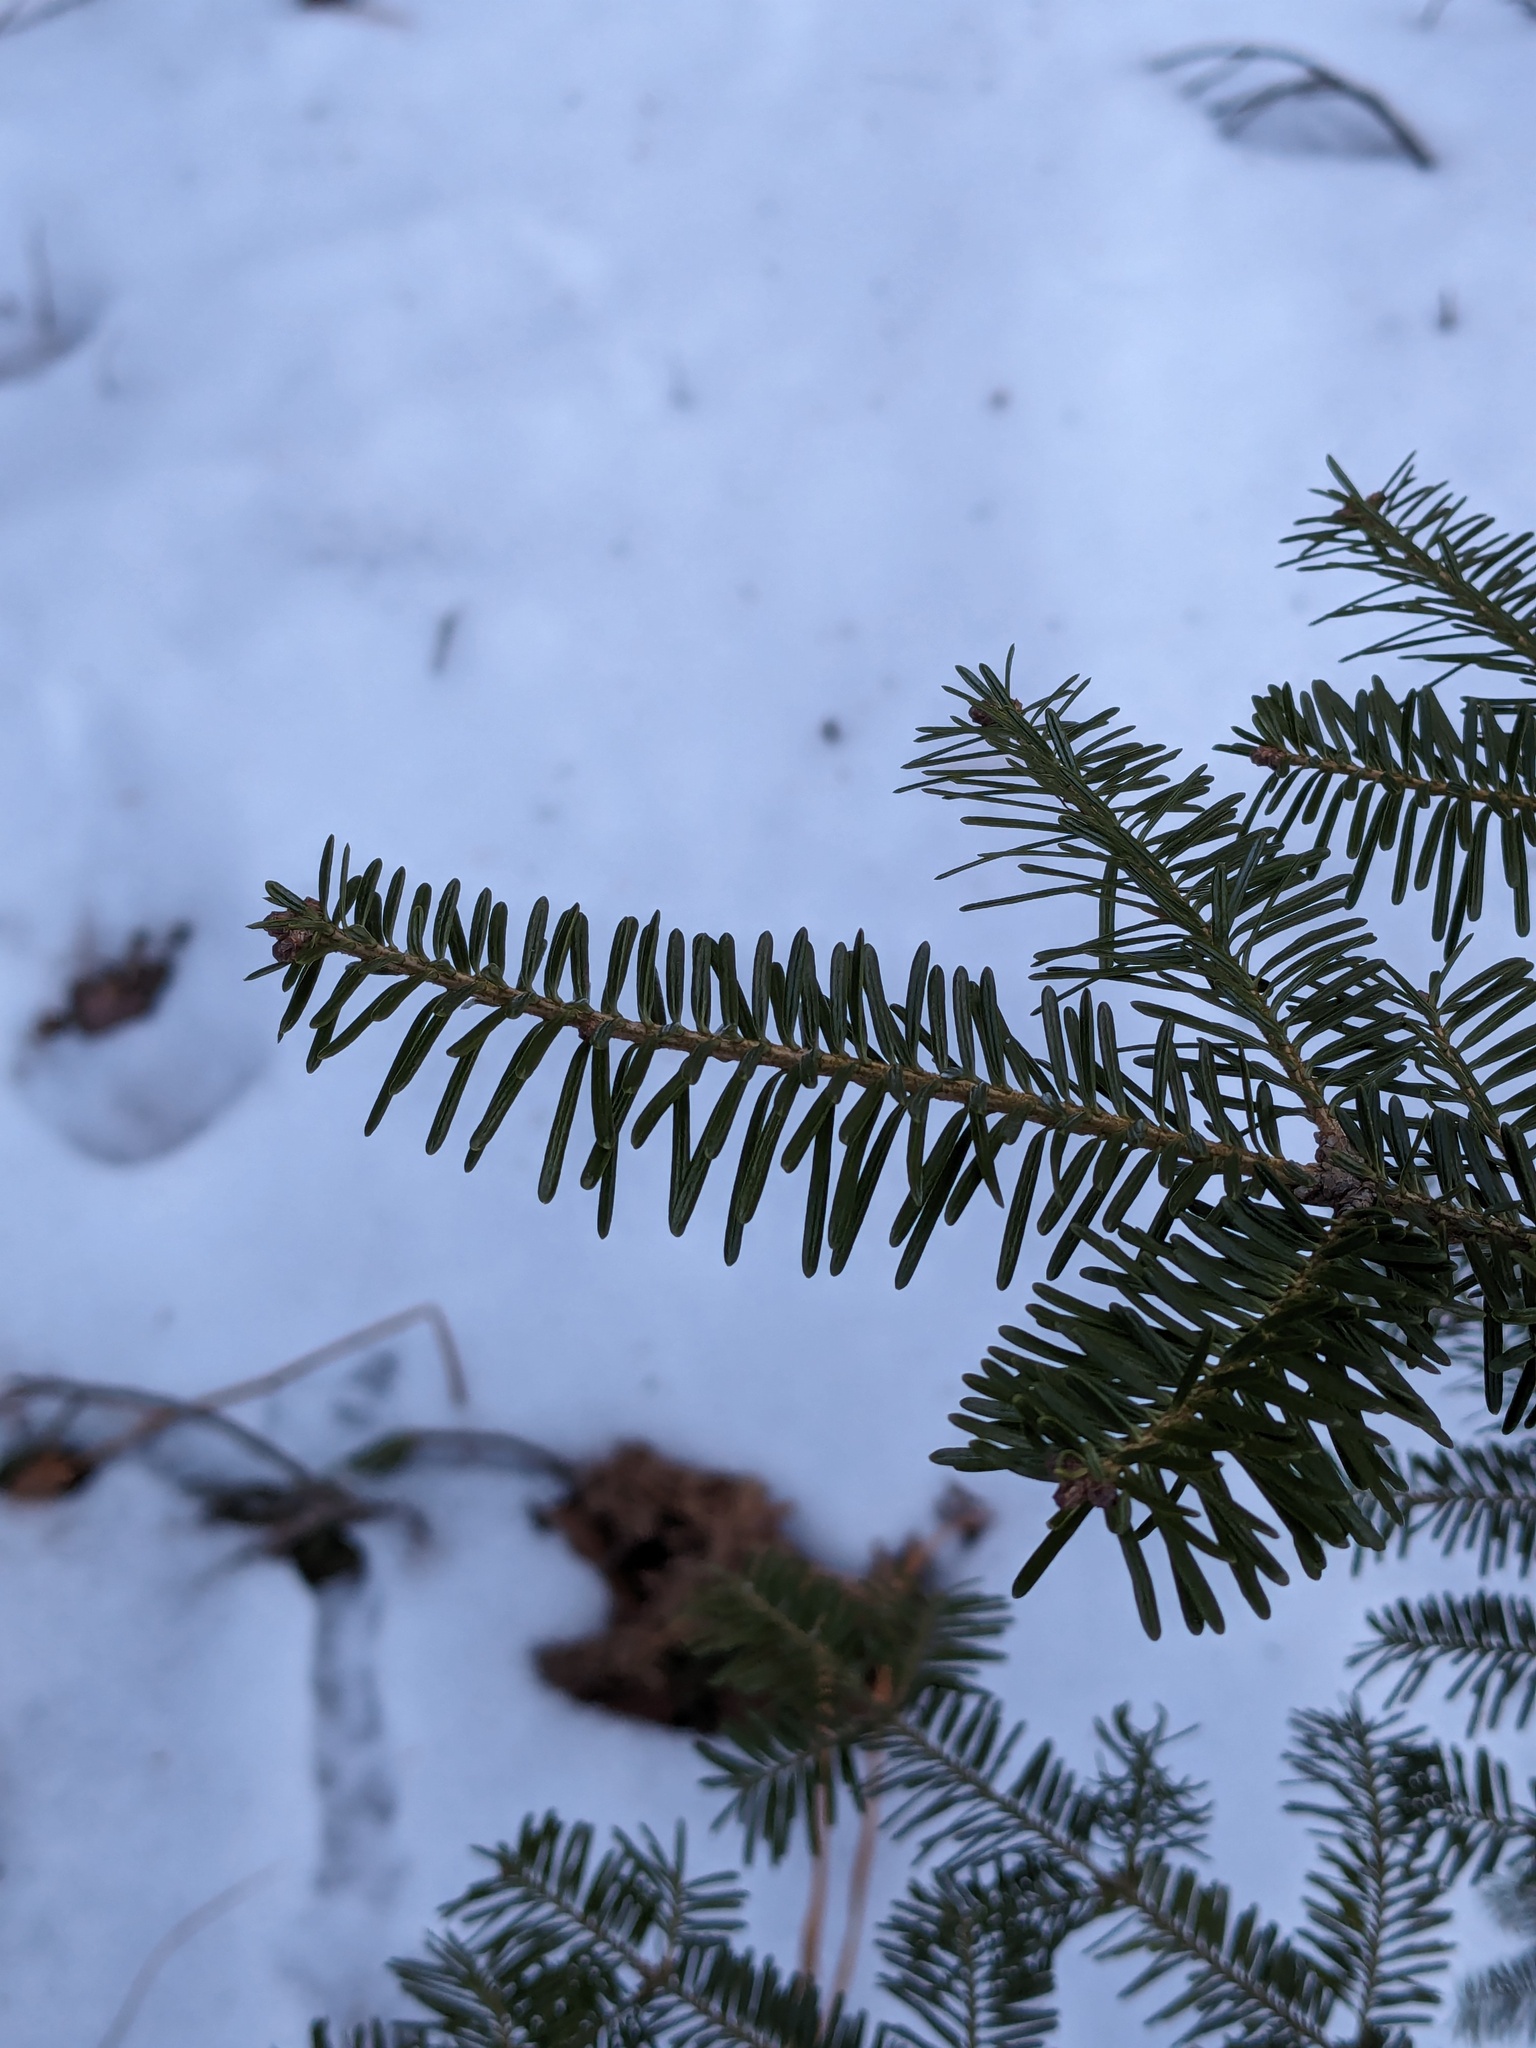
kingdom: Plantae
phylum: Tracheophyta
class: Pinopsida
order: Pinales
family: Pinaceae
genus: Abies
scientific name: Abies balsamea
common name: Balsam fir
